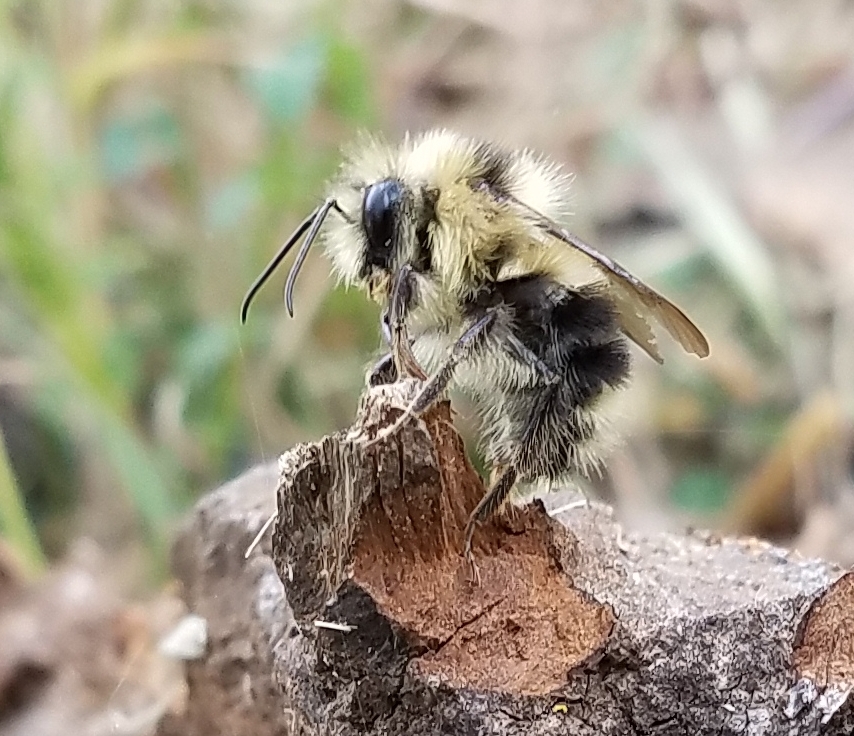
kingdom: Animalia
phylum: Arthropoda
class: Insecta
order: Hymenoptera
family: Apidae
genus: Bombus
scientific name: Bombus melanopygus
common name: Black tail bumble bee
